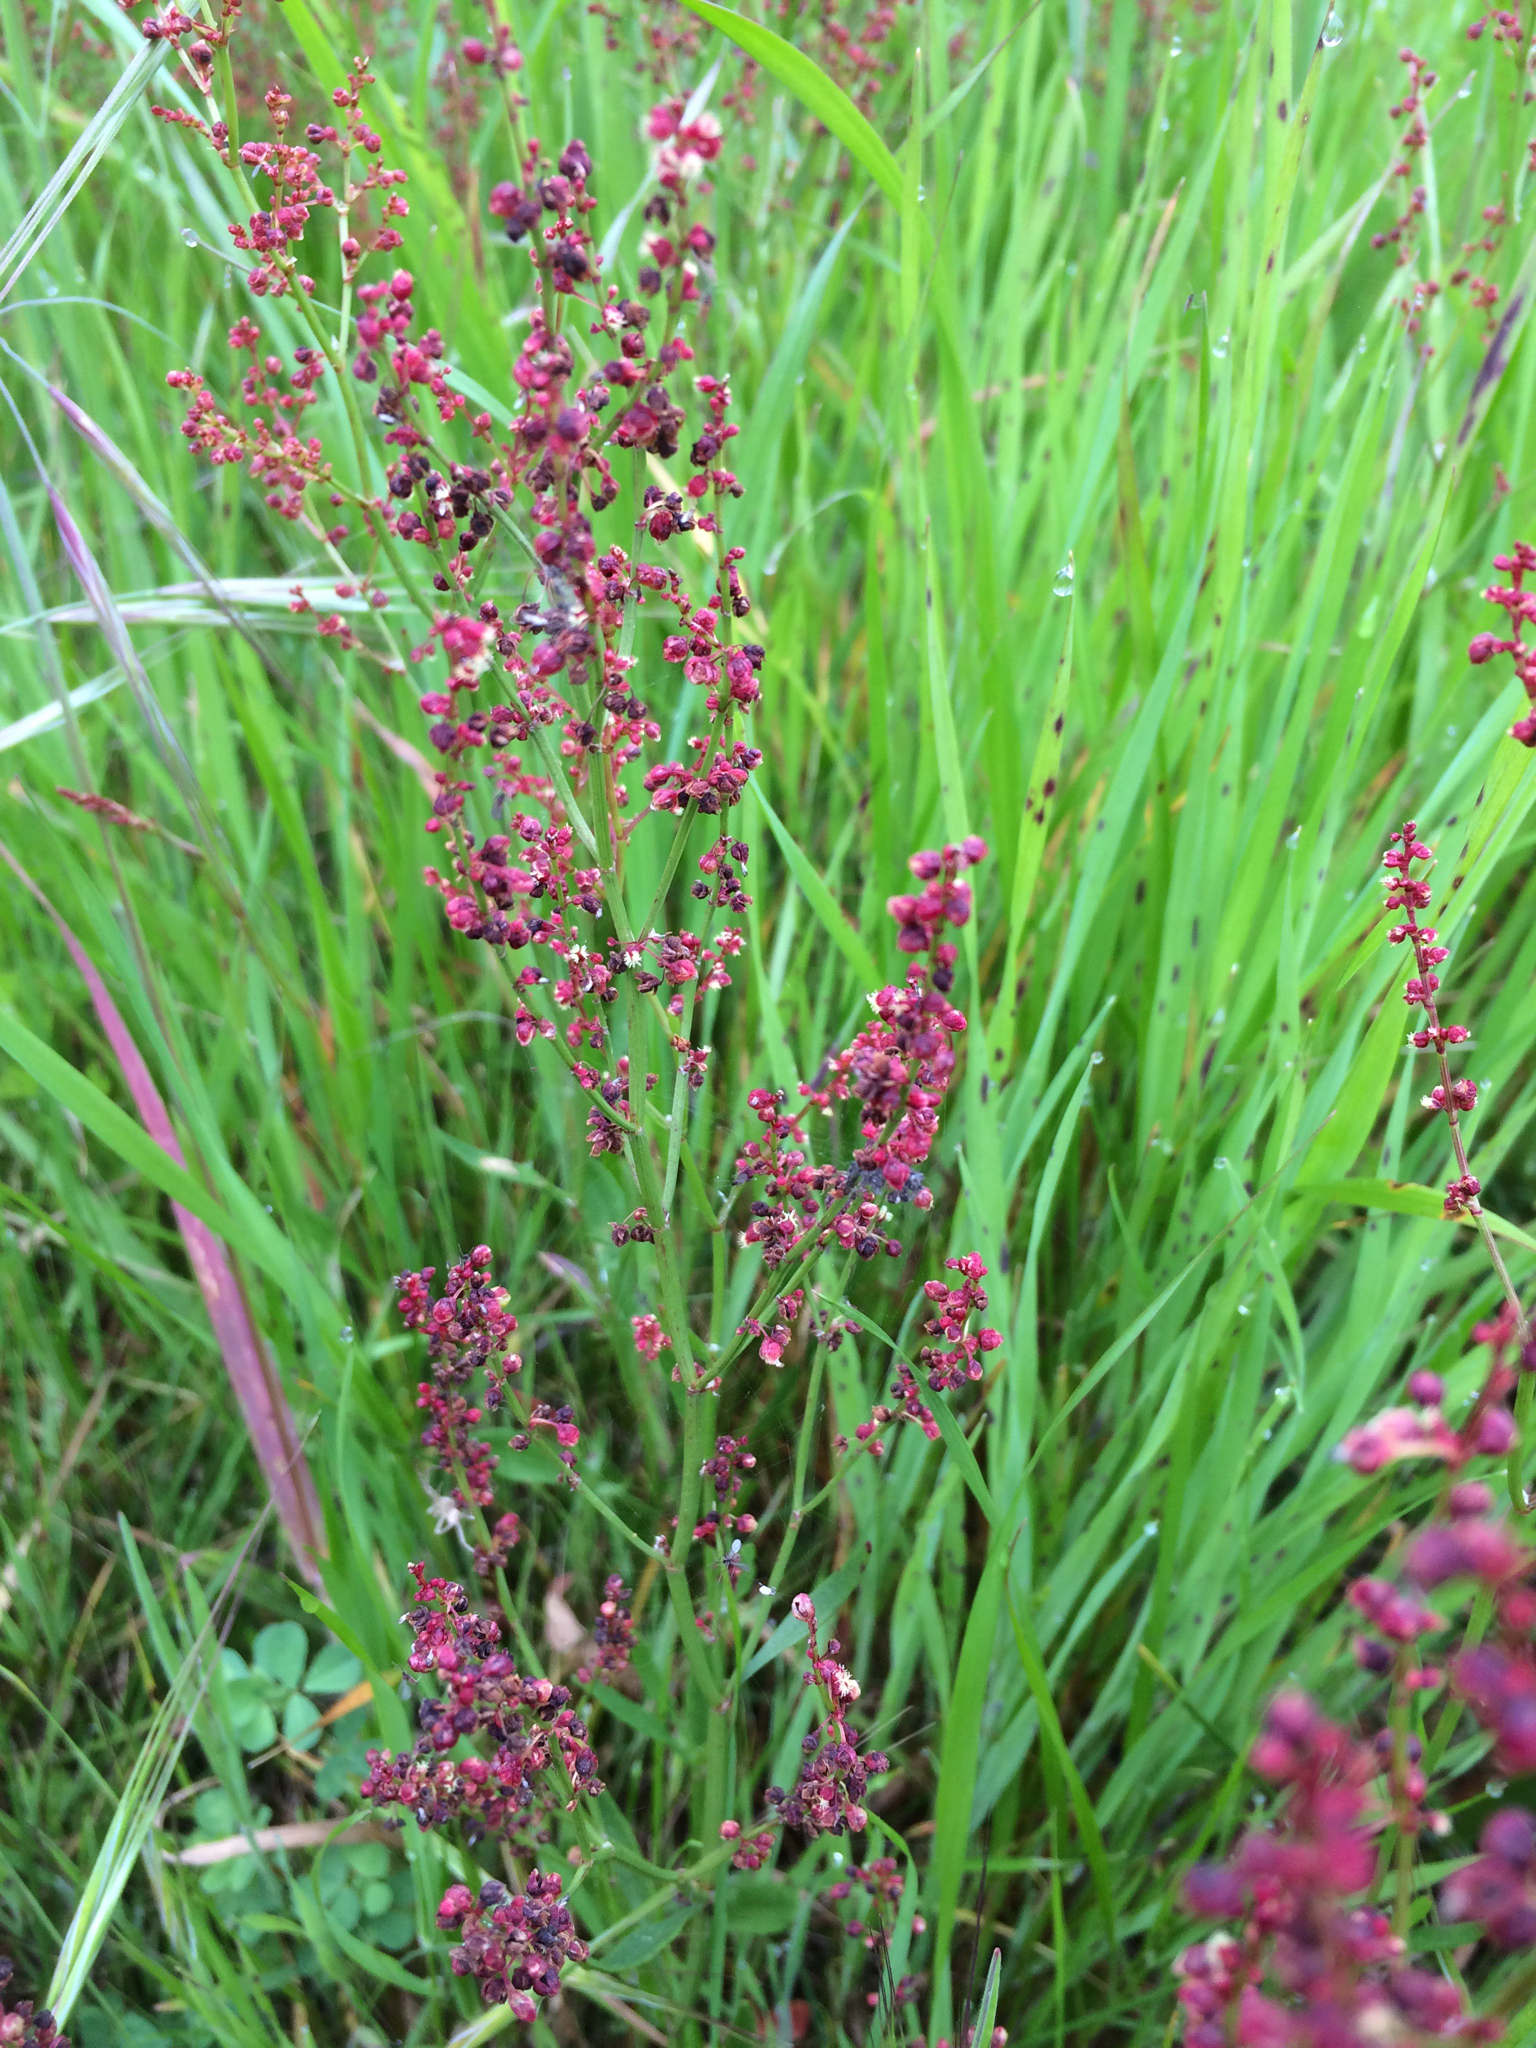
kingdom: Plantae
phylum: Tracheophyta
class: Magnoliopsida
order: Caryophyllales
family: Polygonaceae
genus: Rumex
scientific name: Rumex acetosella
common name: Common sheep sorrel
